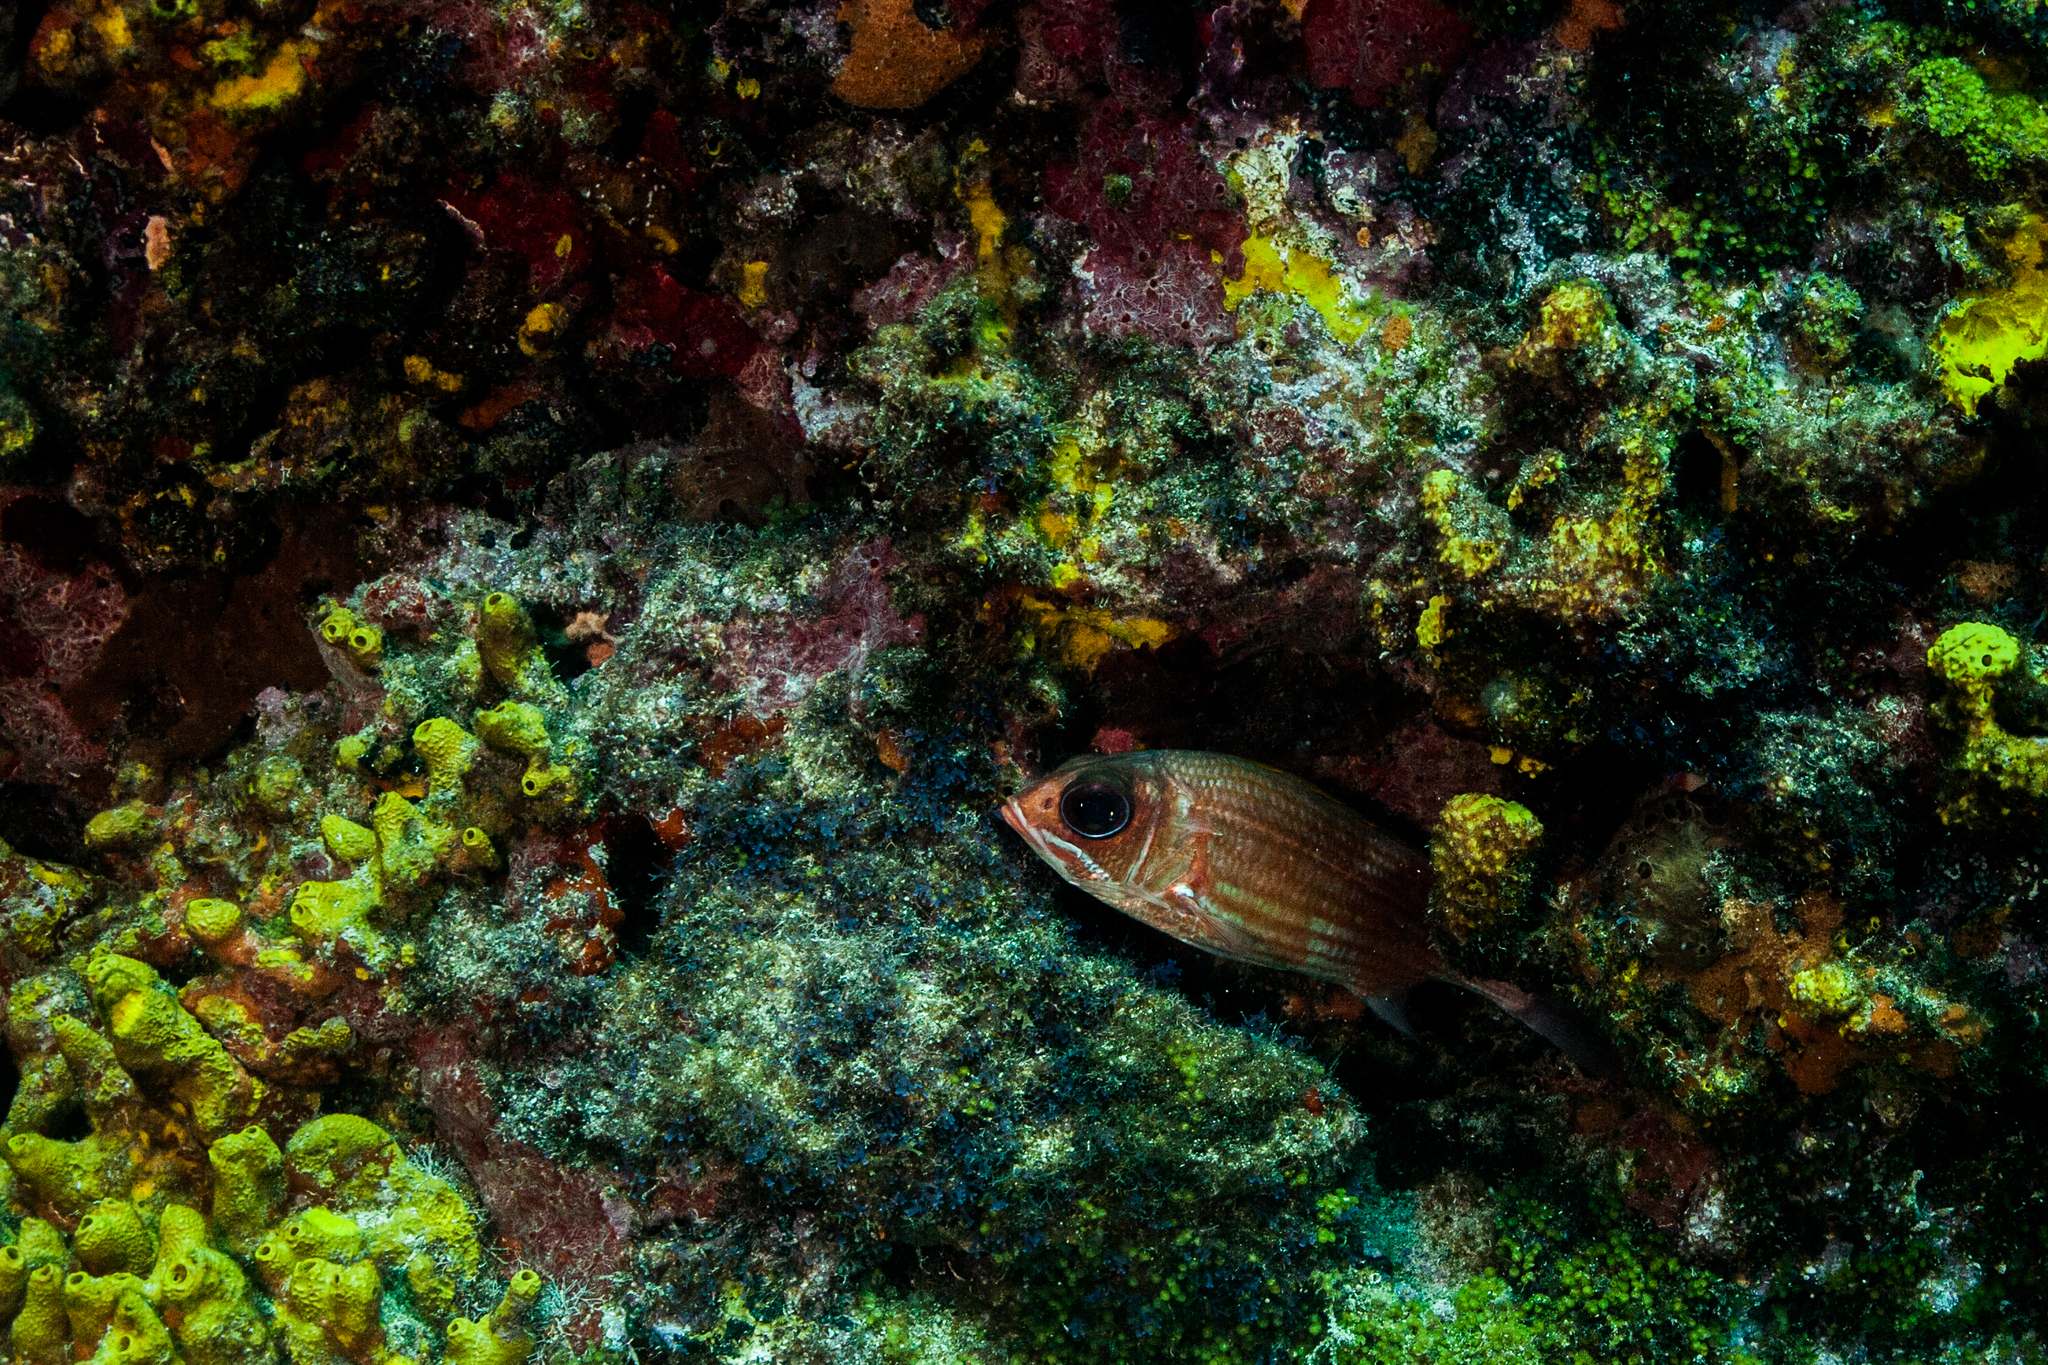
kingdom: Animalia
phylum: Chordata
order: Beryciformes
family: Holocentridae
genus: Holocentrus
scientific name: Holocentrus adscensionis
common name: Squirrelfish
